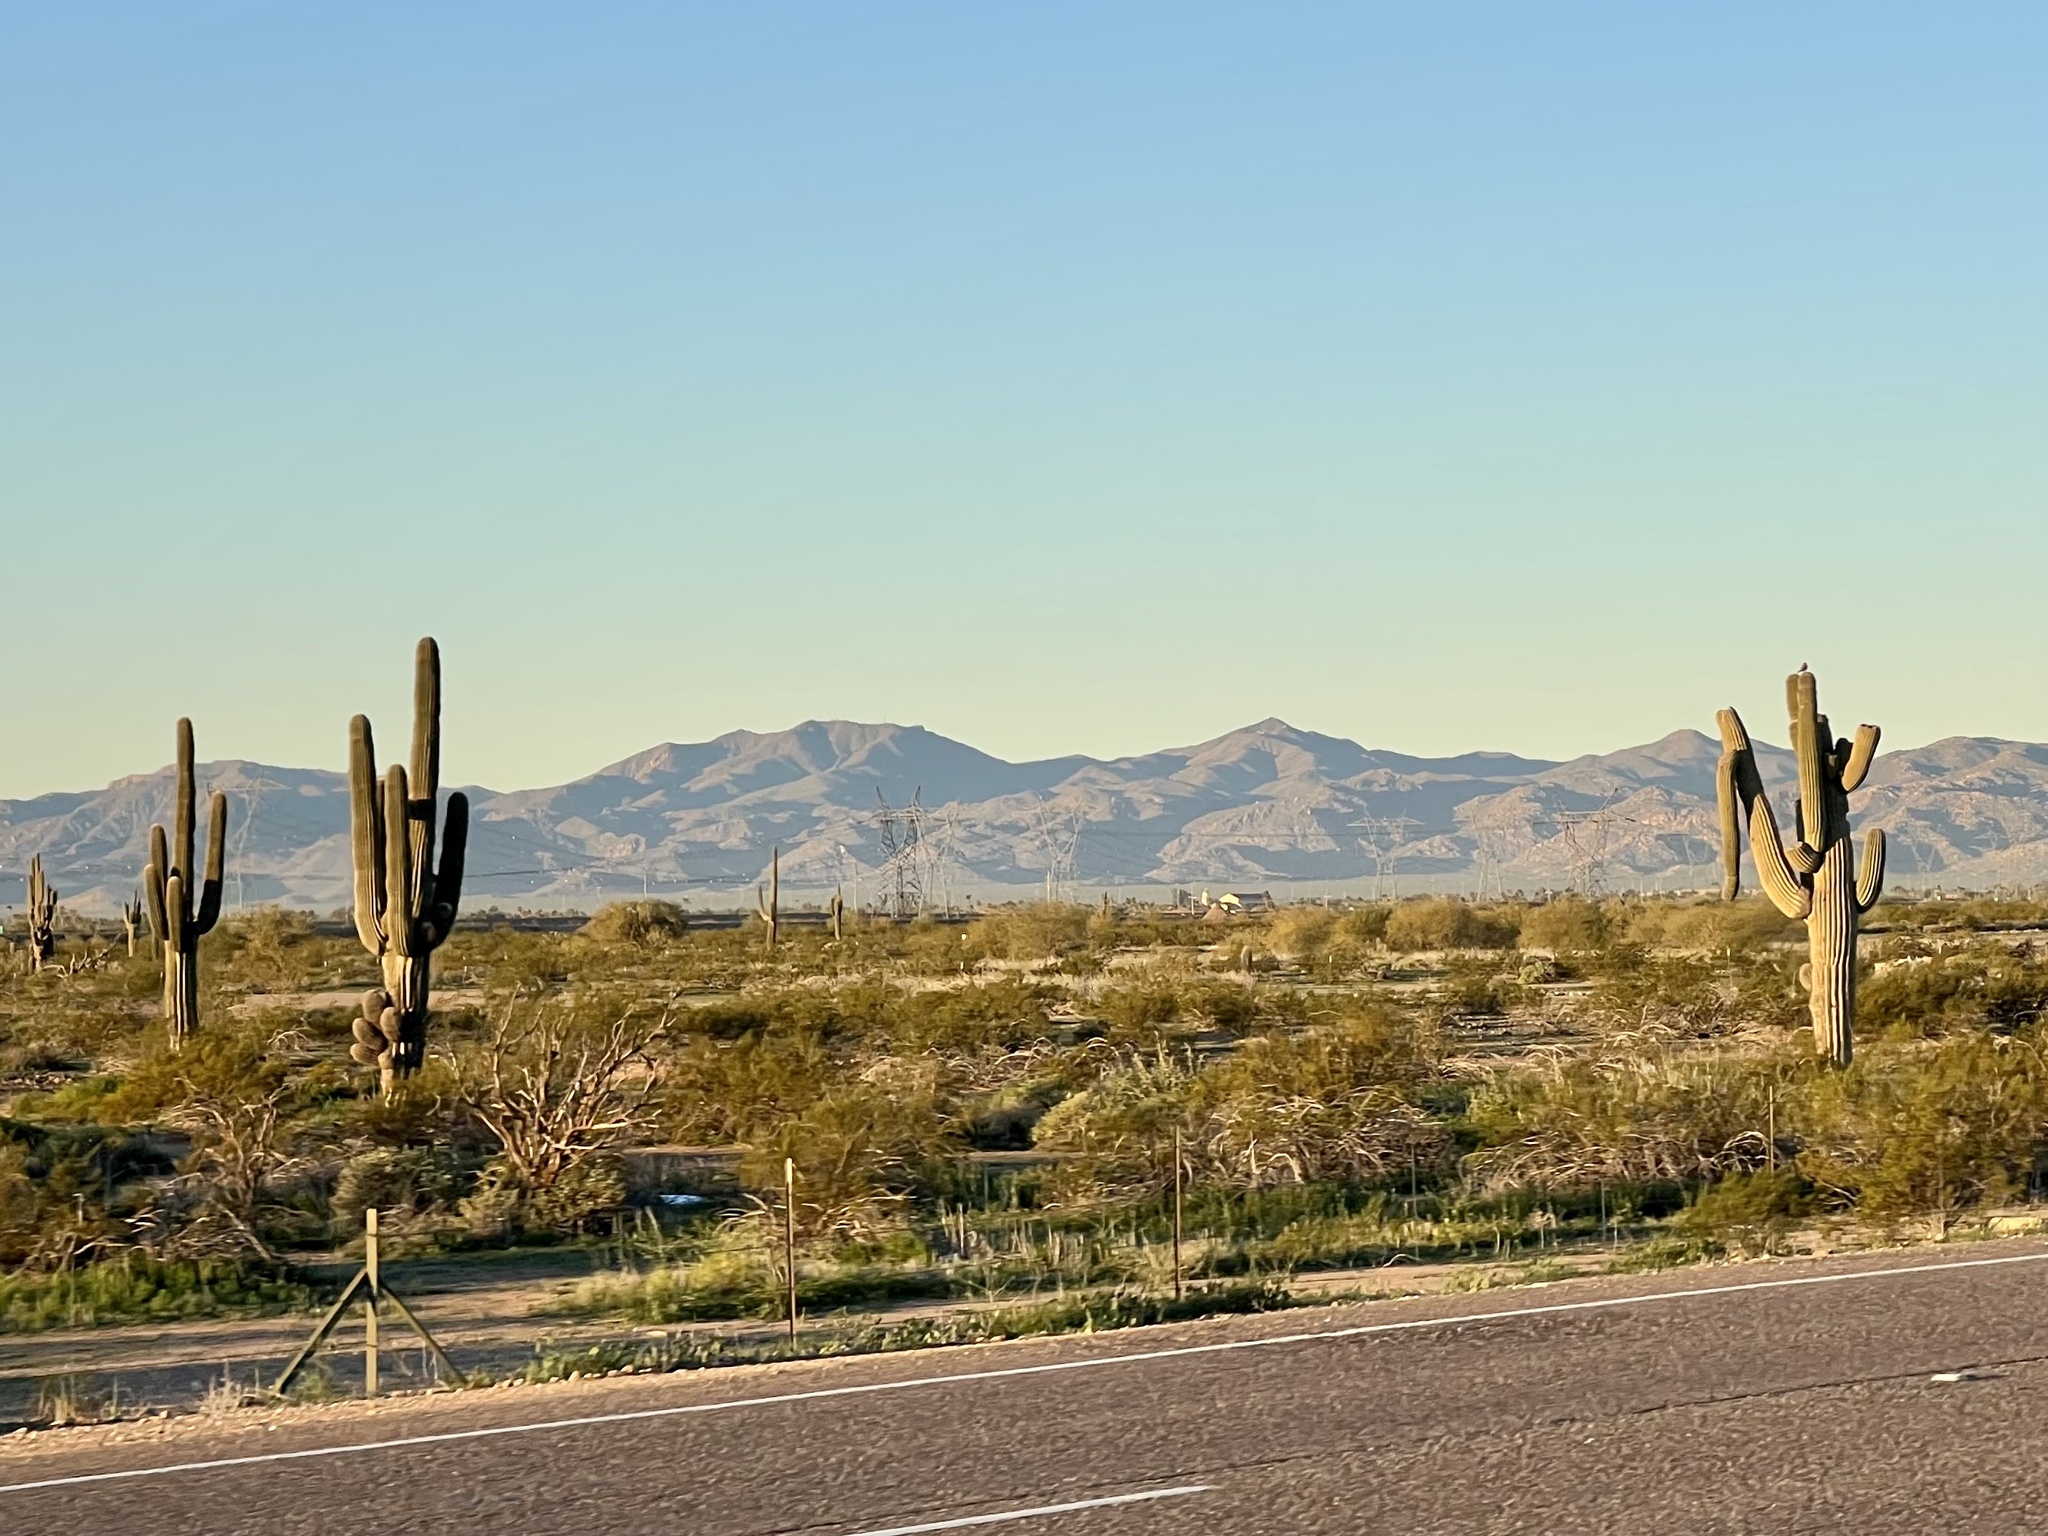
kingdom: Plantae
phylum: Tracheophyta
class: Magnoliopsida
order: Caryophyllales
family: Cactaceae
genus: Carnegiea
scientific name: Carnegiea gigantea
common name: Saguaro
